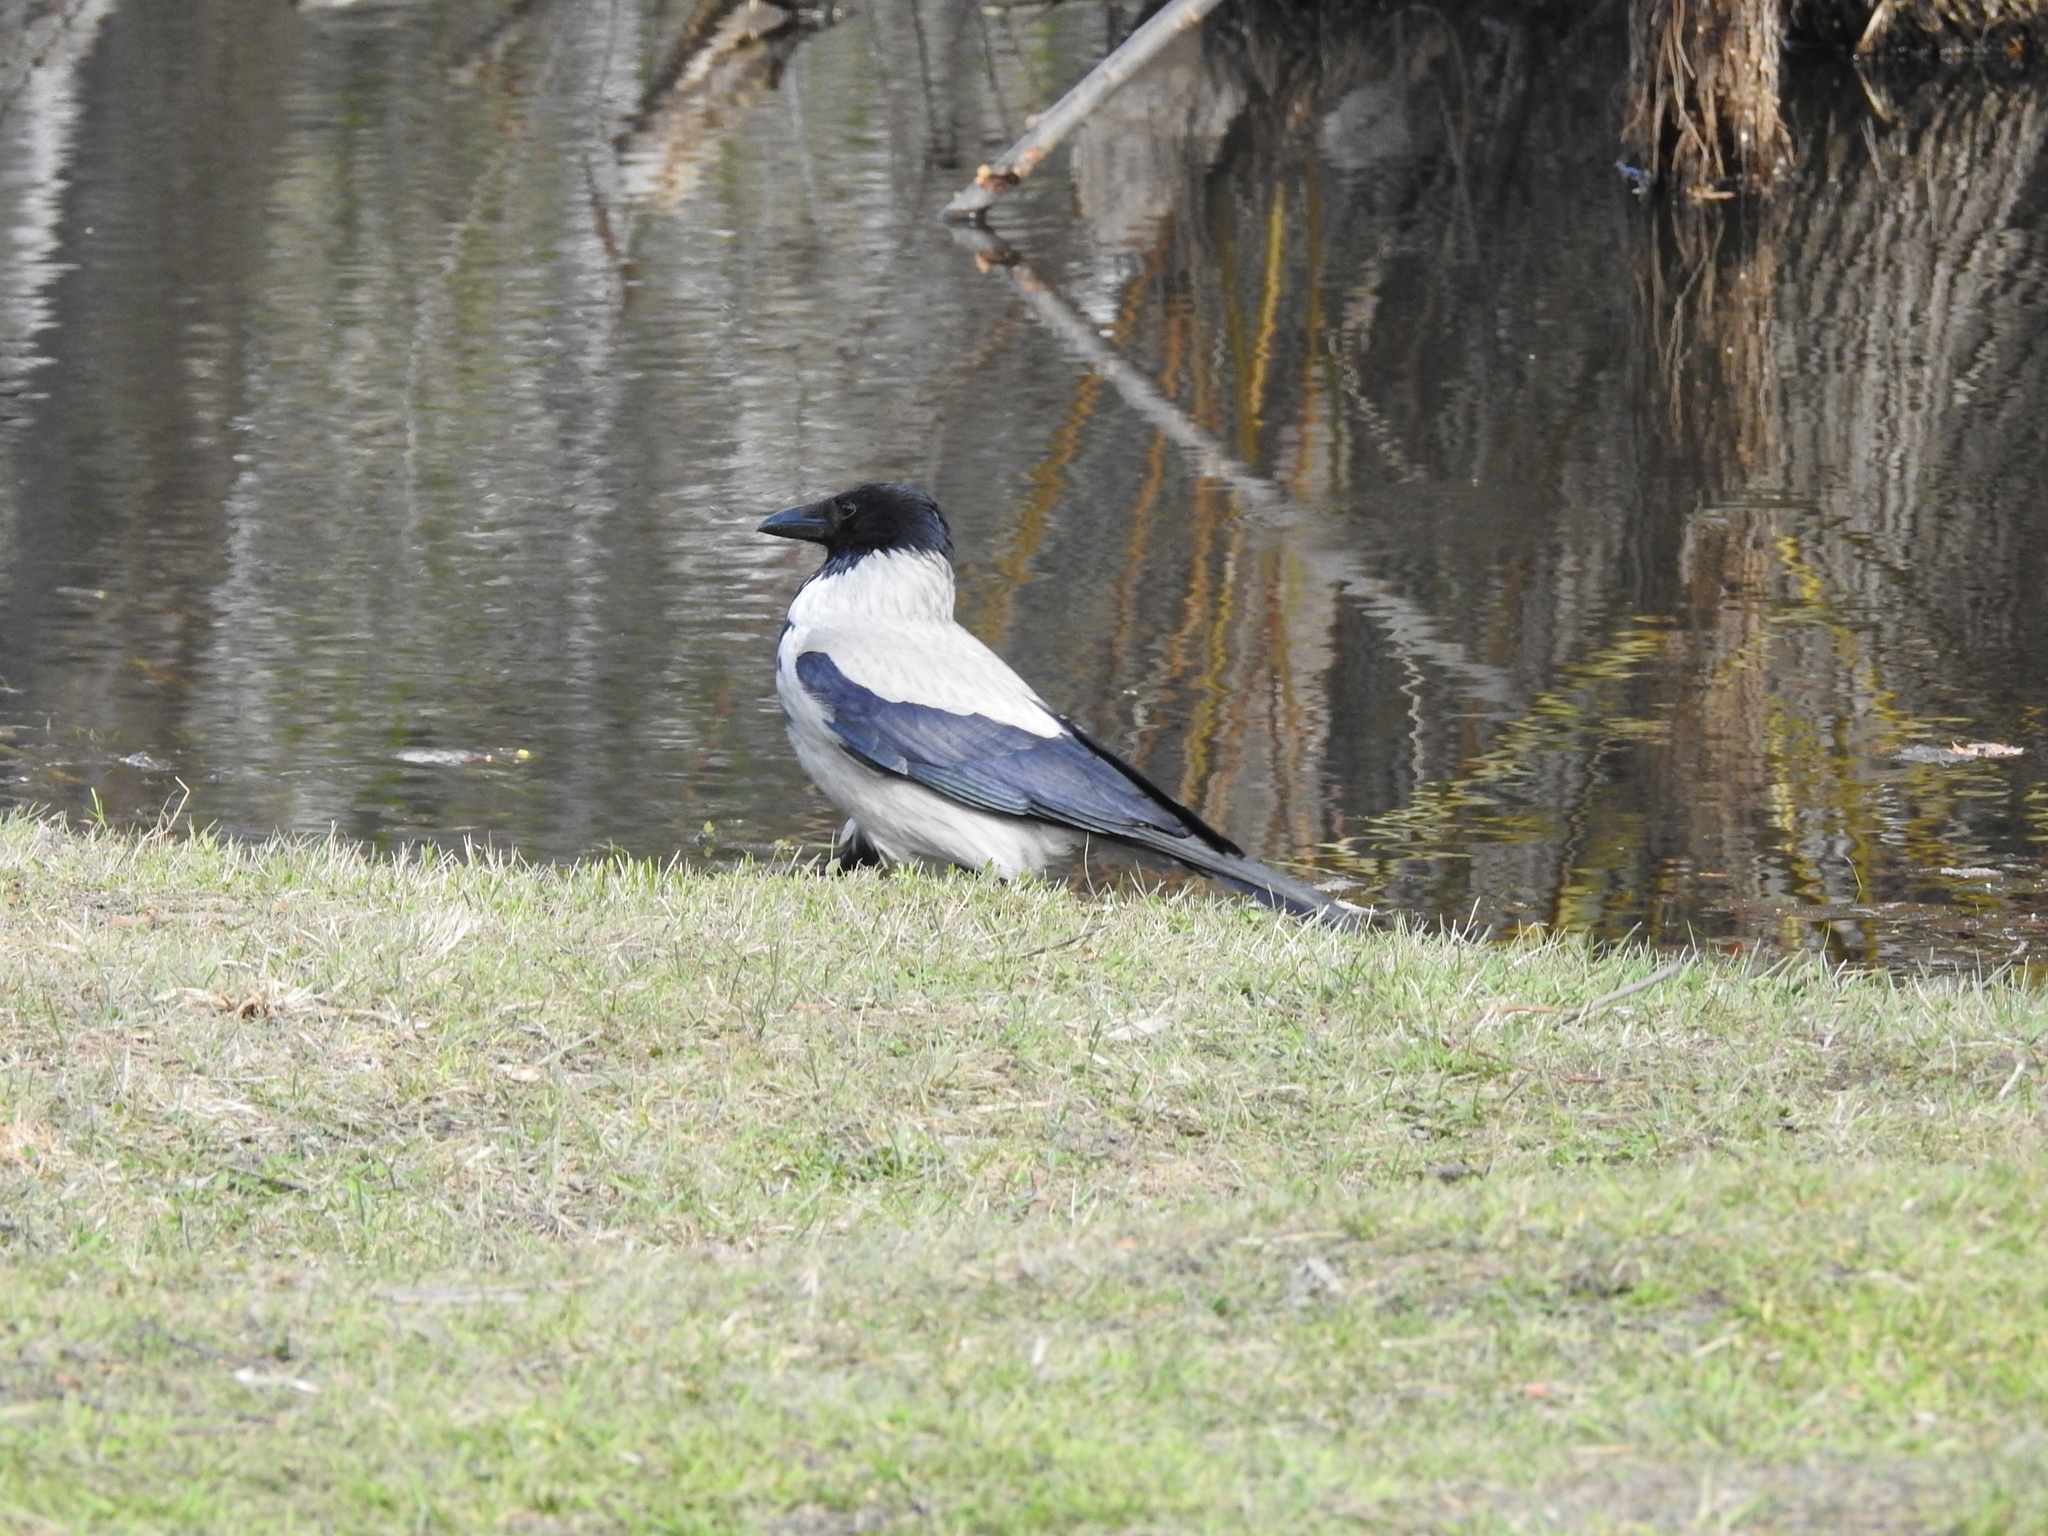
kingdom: Animalia
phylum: Chordata
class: Aves
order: Passeriformes
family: Corvidae
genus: Corvus
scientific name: Corvus cornix
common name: Hooded crow
